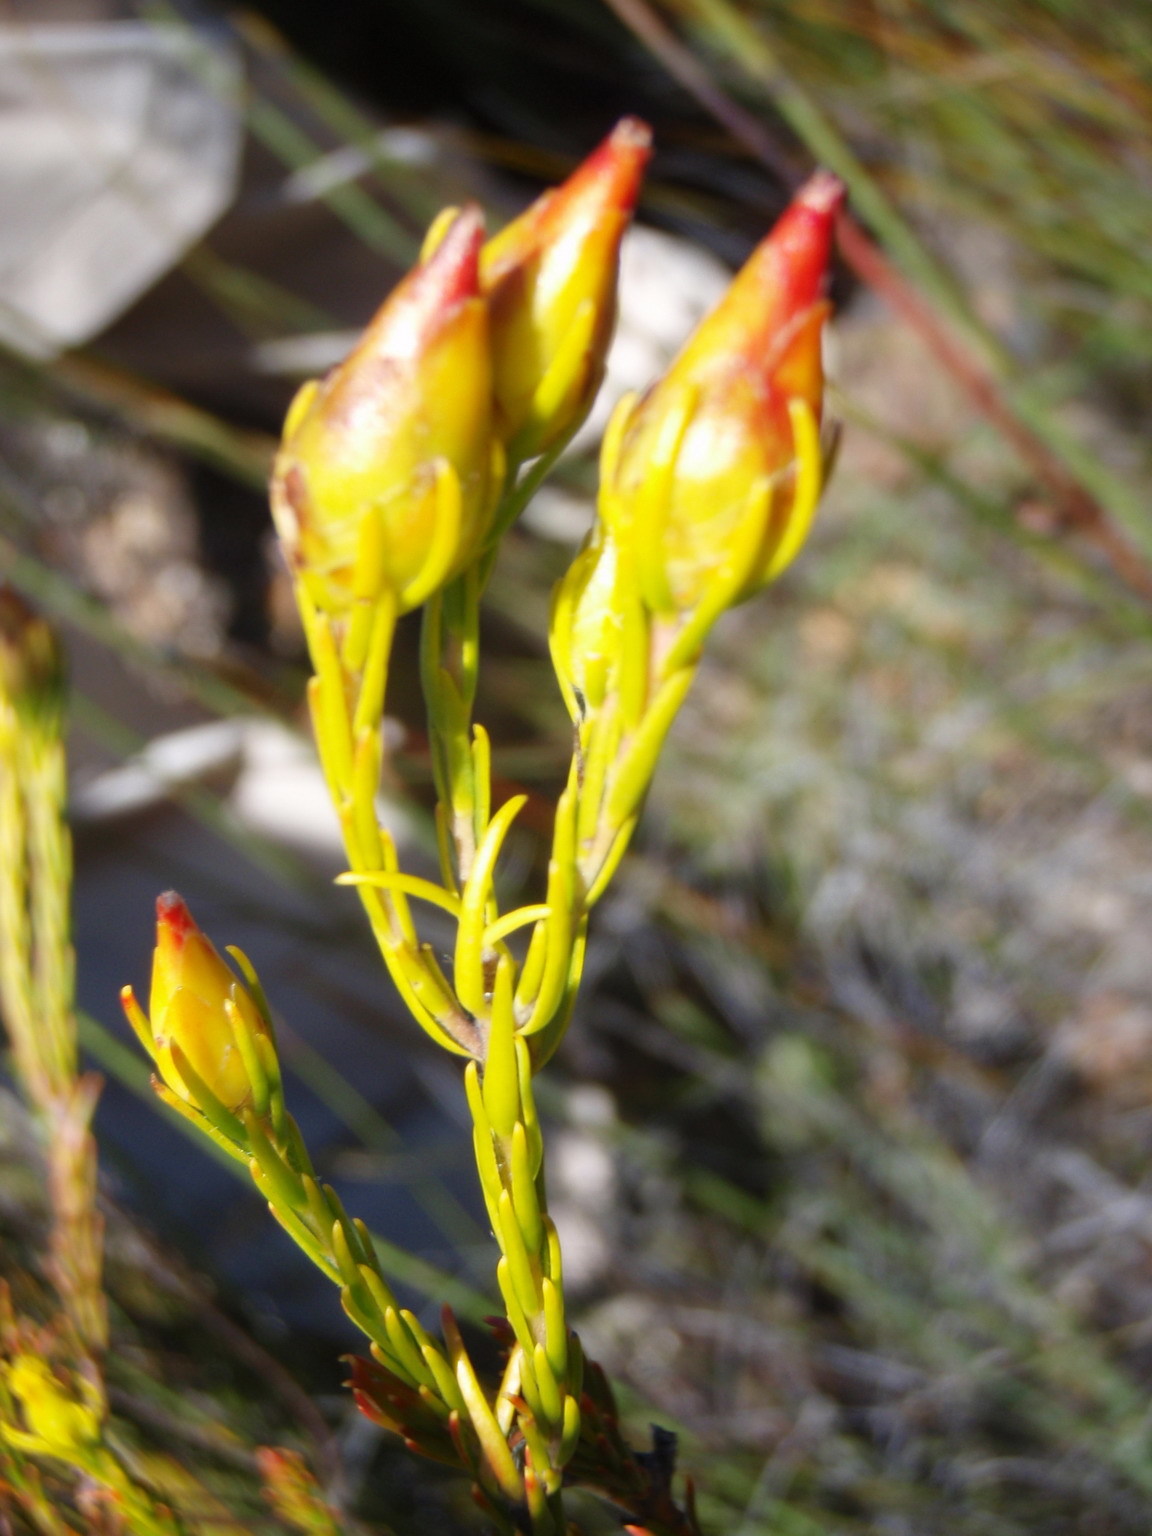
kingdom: Plantae
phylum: Tracheophyta
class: Magnoliopsida
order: Proteales
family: Proteaceae
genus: Leucadendron
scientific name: Leucadendron olens
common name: Yellow conebush
